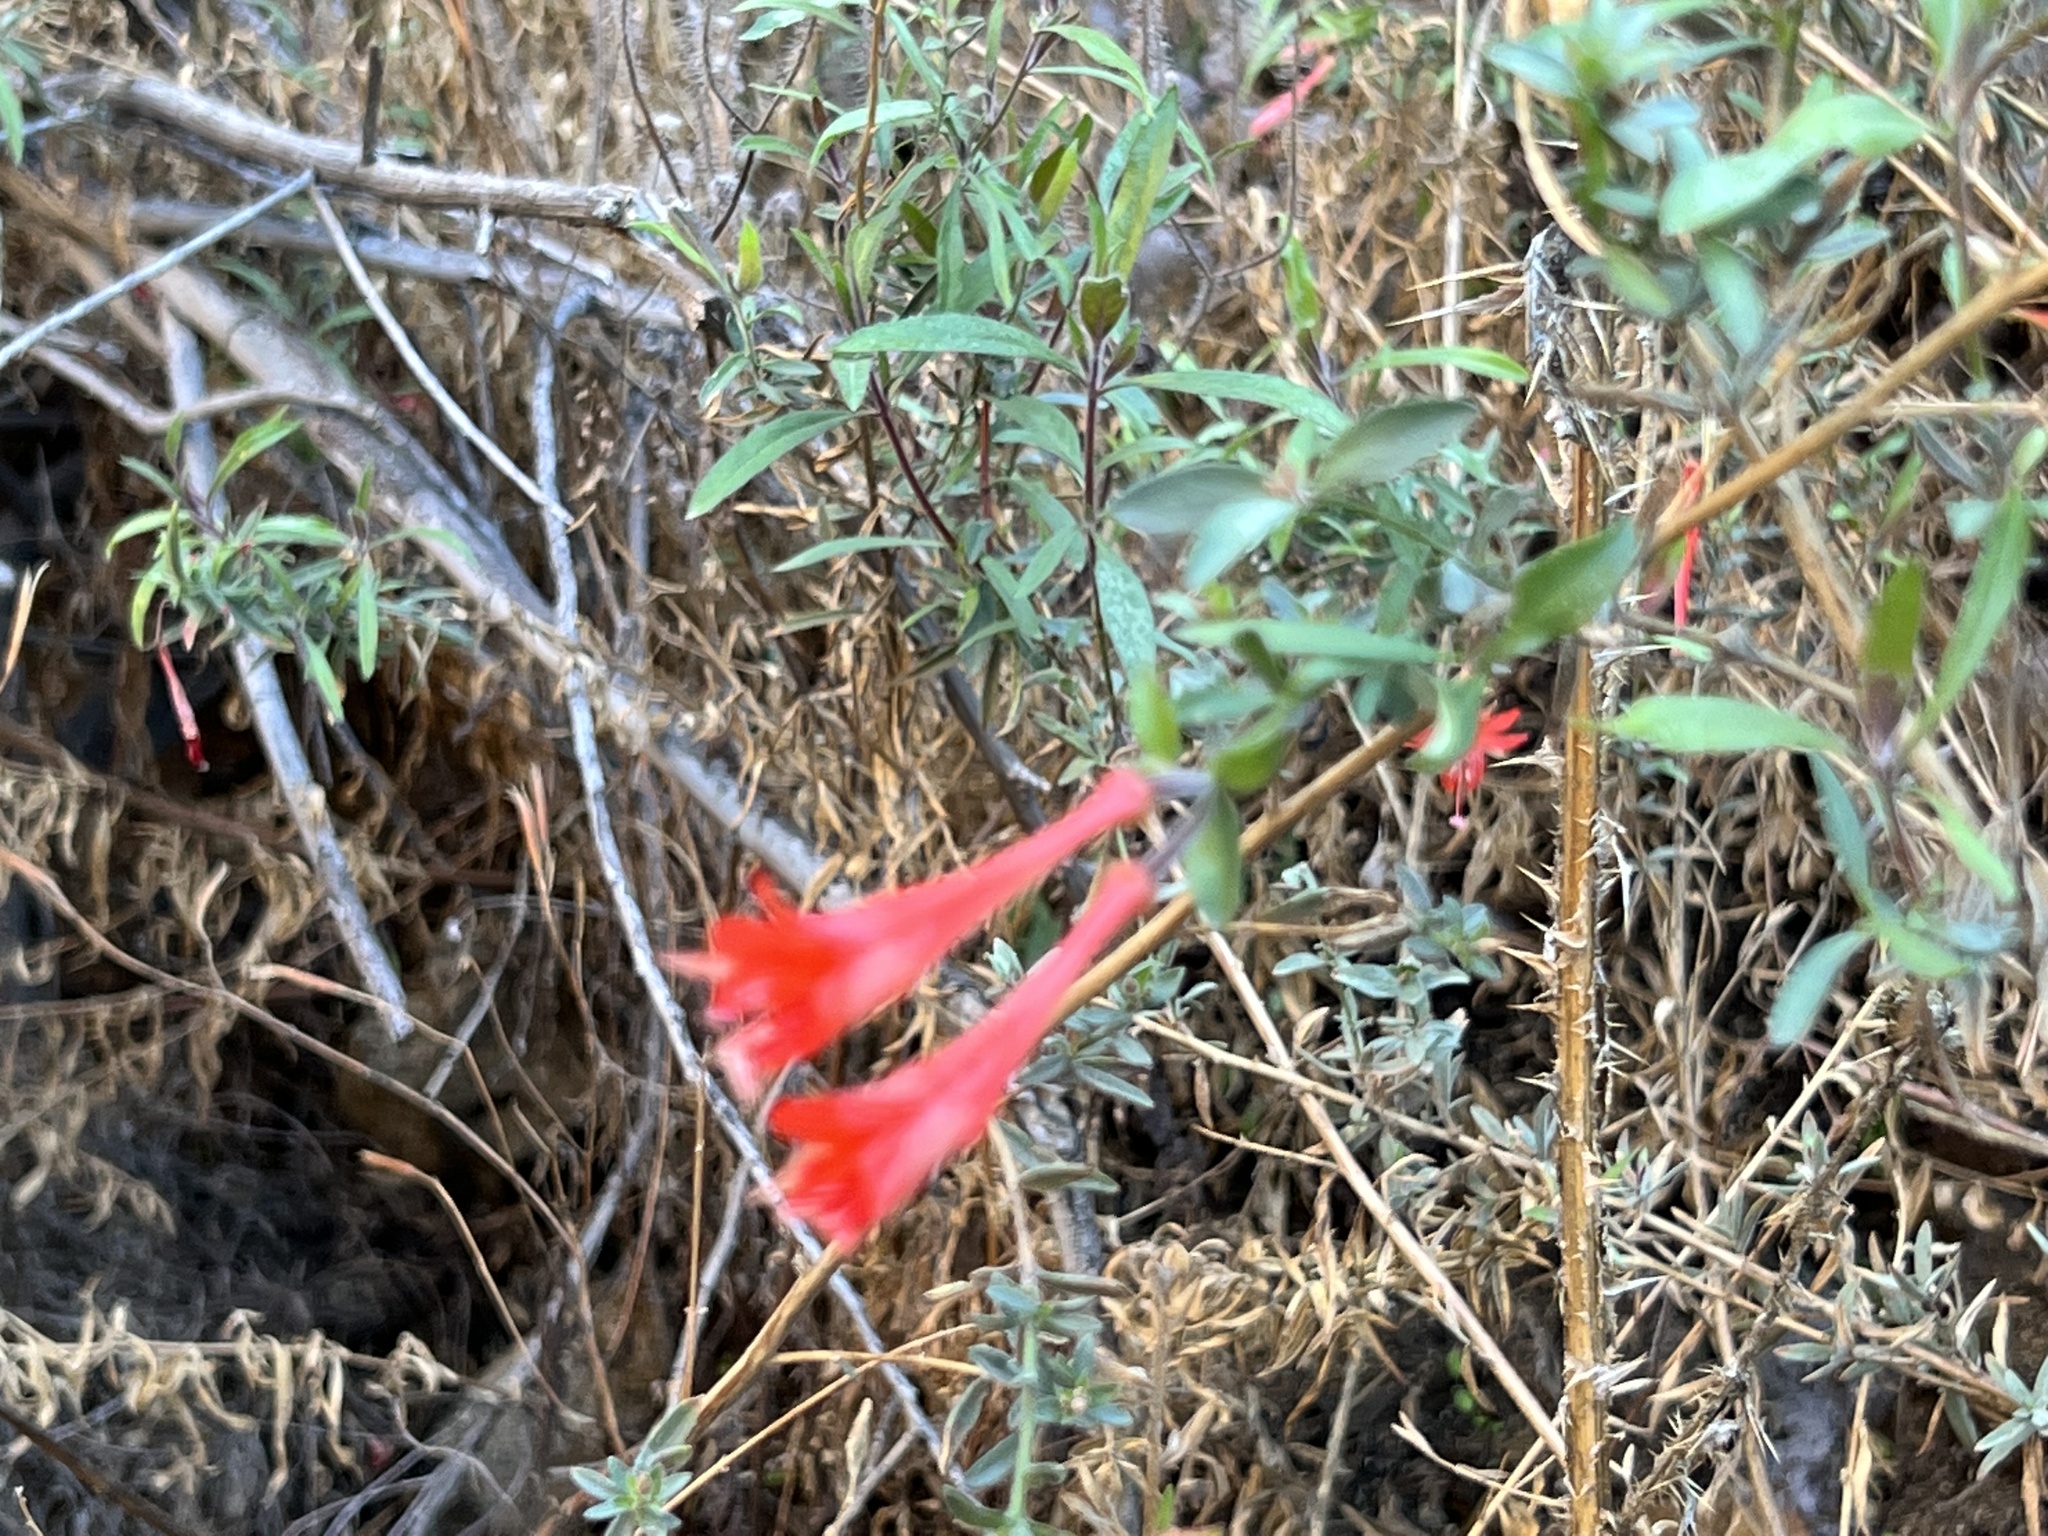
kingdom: Plantae
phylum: Tracheophyta
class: Magnoliopsida
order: Myrtales
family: Onagraceae
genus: Epilobium
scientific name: Epilobium canum
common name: California-fuchsia
